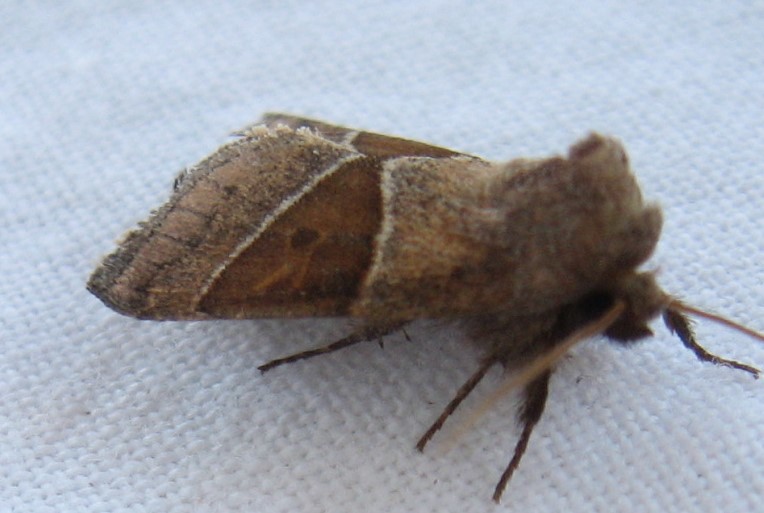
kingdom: Animalia
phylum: Arthropoda
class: Insecta
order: Lepidoptera
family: Noctuidae
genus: Lemmeria
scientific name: Lemmeria digitalis
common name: Fingered lemmeria moth
